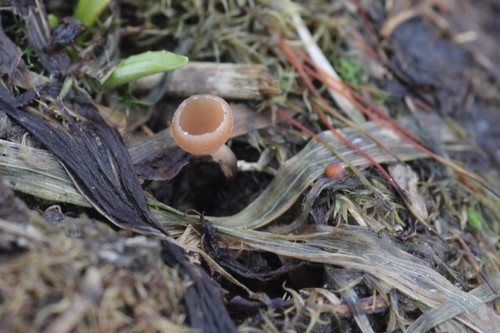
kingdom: Fungi
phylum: Ascomycota
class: Leotiomycetes
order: Helotiales
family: Sclerotiniaceae
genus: Ciboria
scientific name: Ciboria caucus
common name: Alder goblet
